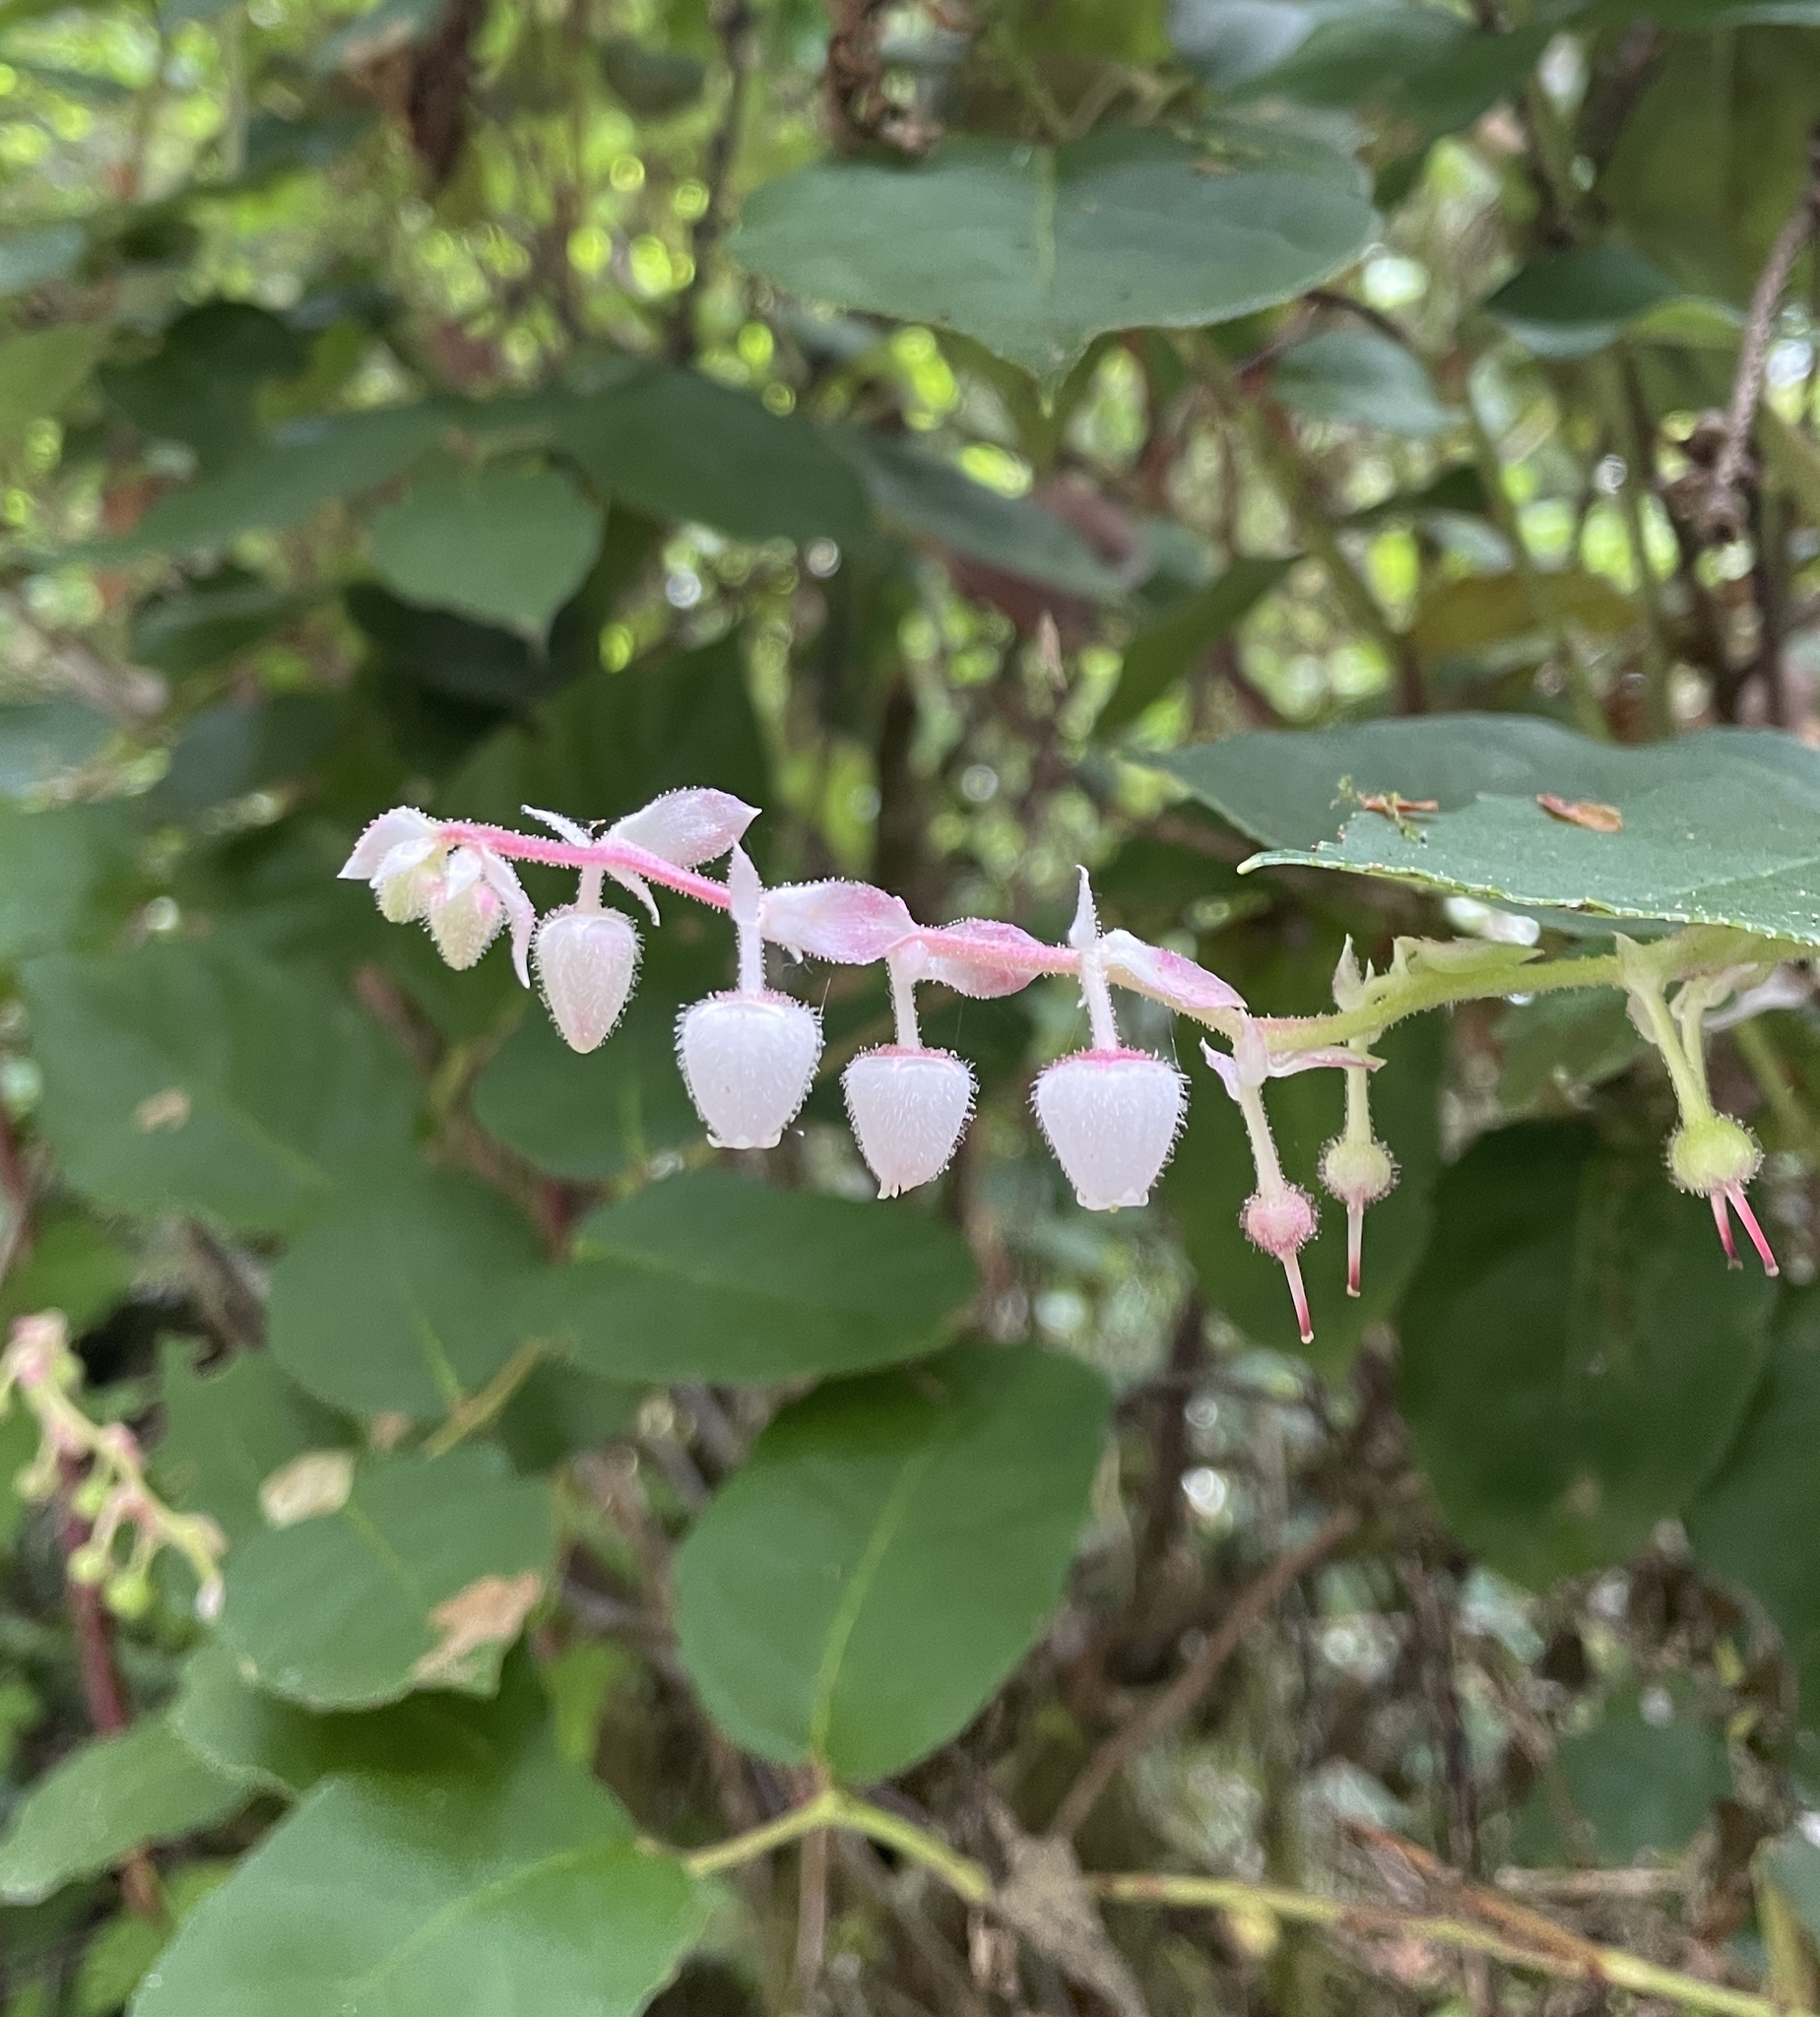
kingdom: Plantae
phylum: Tracheophyta
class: Magnoliopsida
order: Ericales
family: Ericaceae
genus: Gaultheria
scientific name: Gaultheria shallon
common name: Shallon
